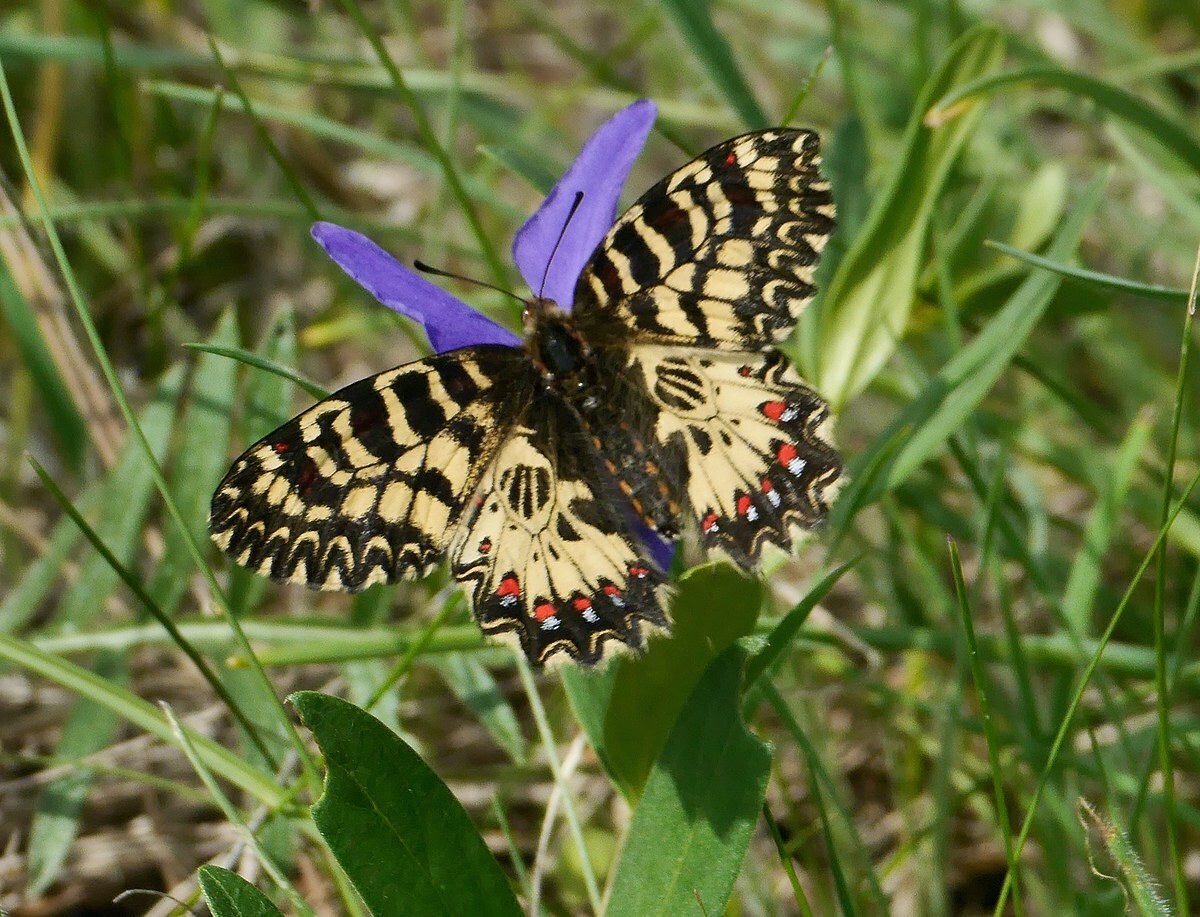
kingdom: Animalia
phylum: Arthropoda
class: Insecta
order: Lepidoptera
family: Papilionidae
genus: Zerynthia
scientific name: Zerynthia polyxena
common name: Southern festoon
